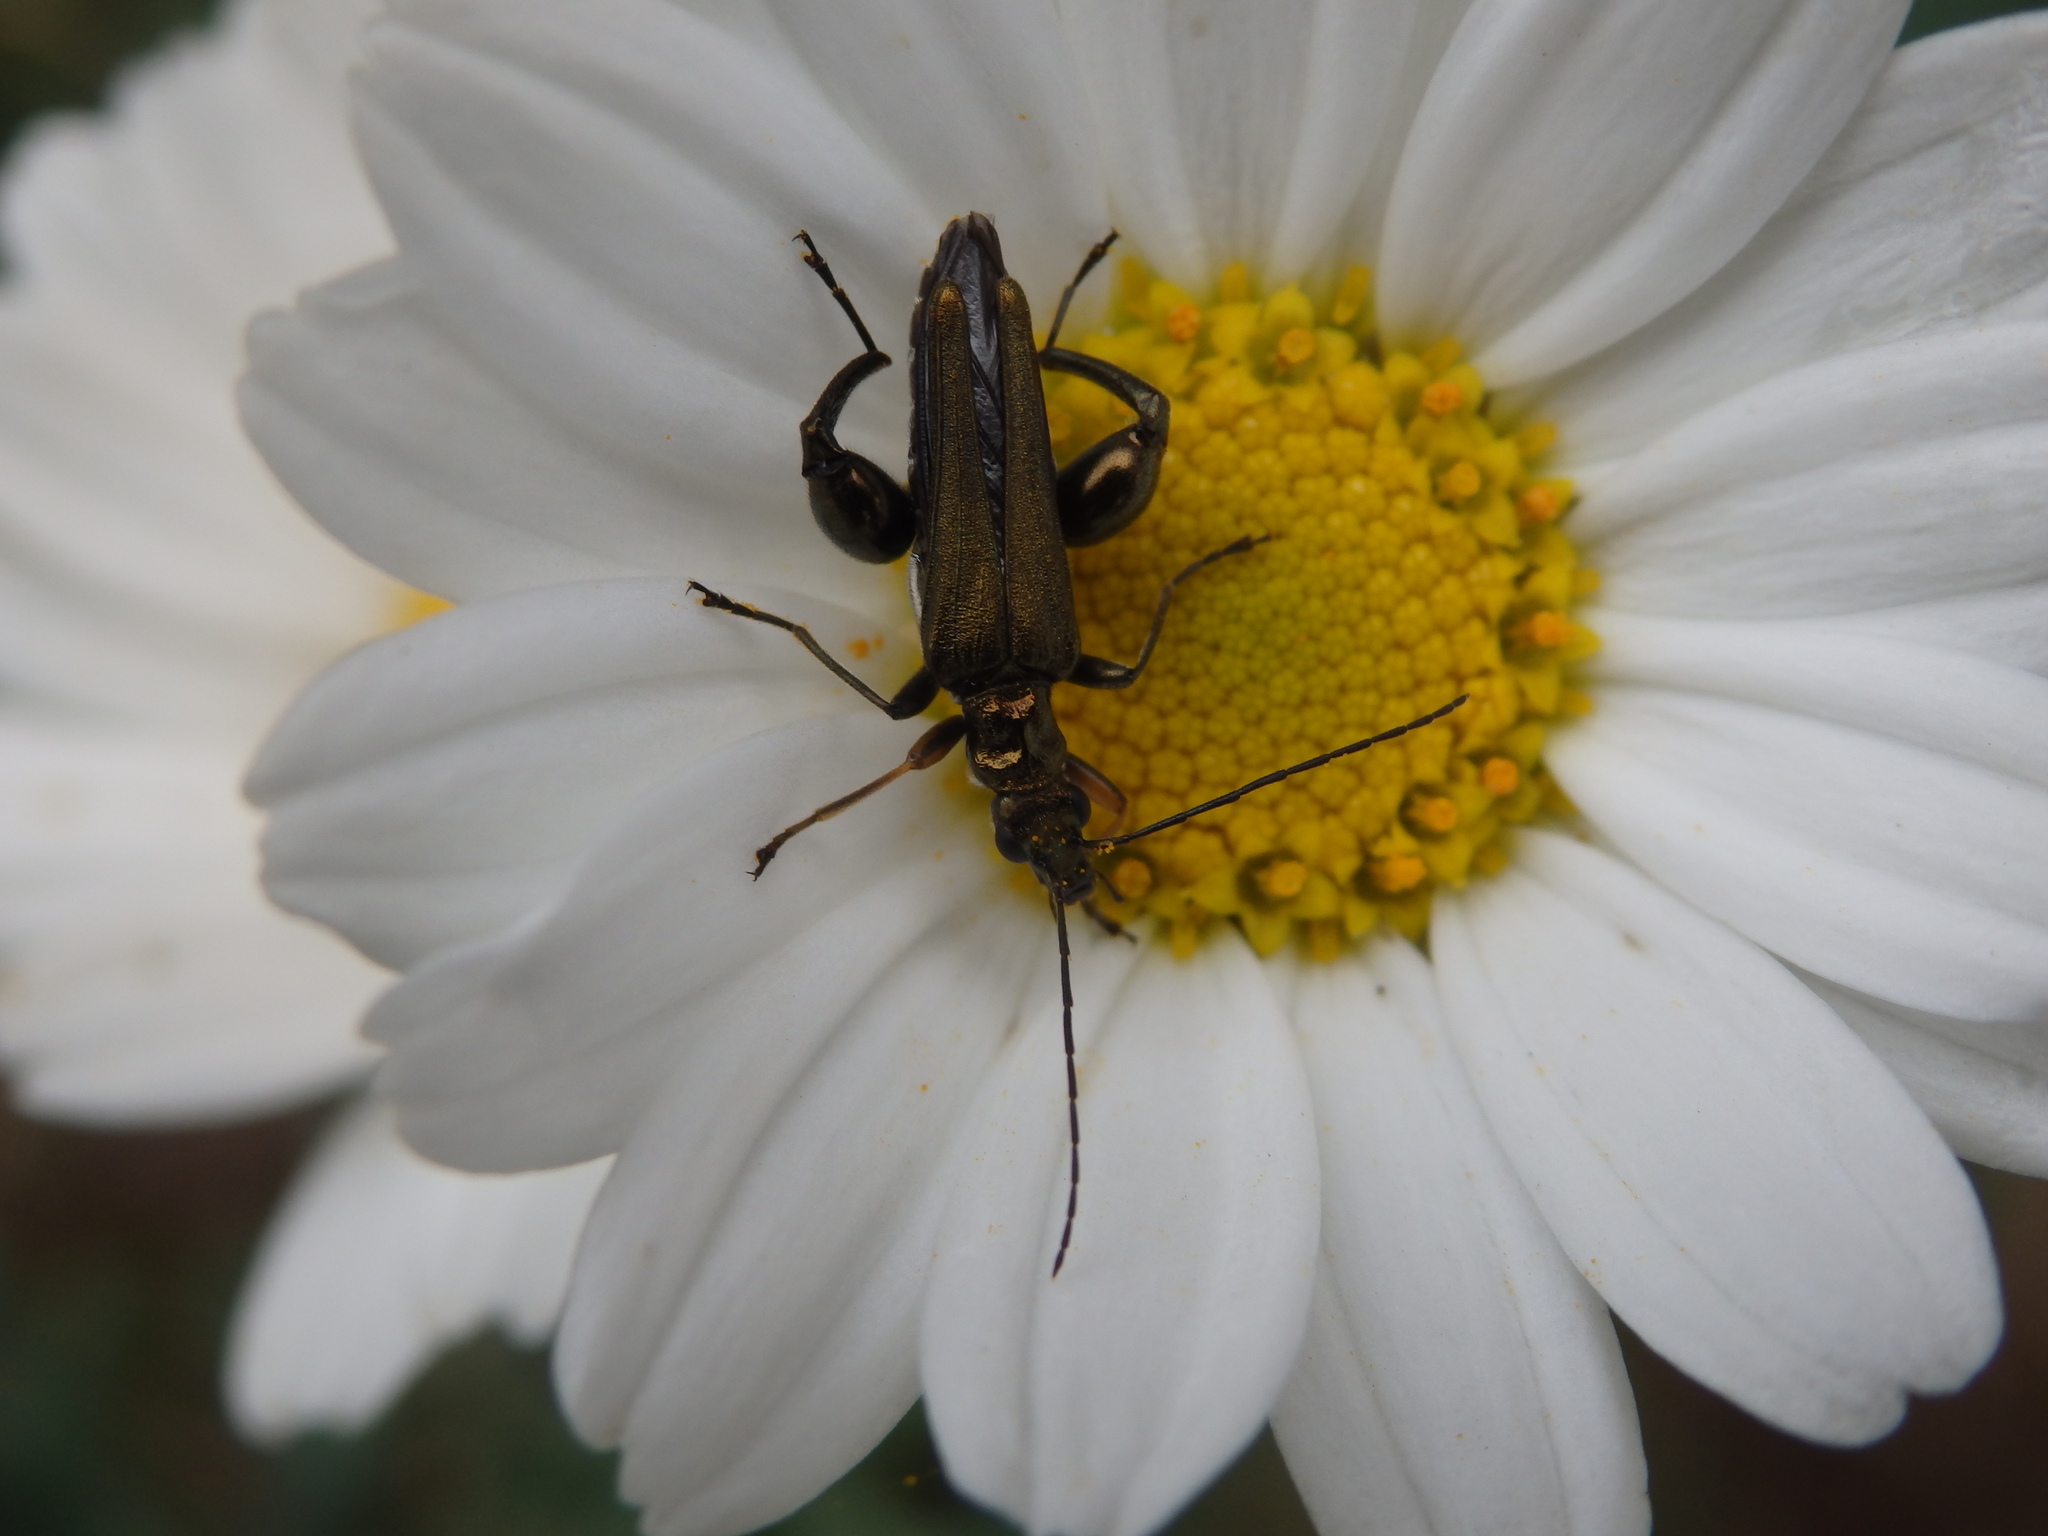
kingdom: Animalia
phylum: Arthropoda
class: Insecta
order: Coleoptera
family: Oedemeridae
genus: Oedemera
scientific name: Oedemera flavipes
